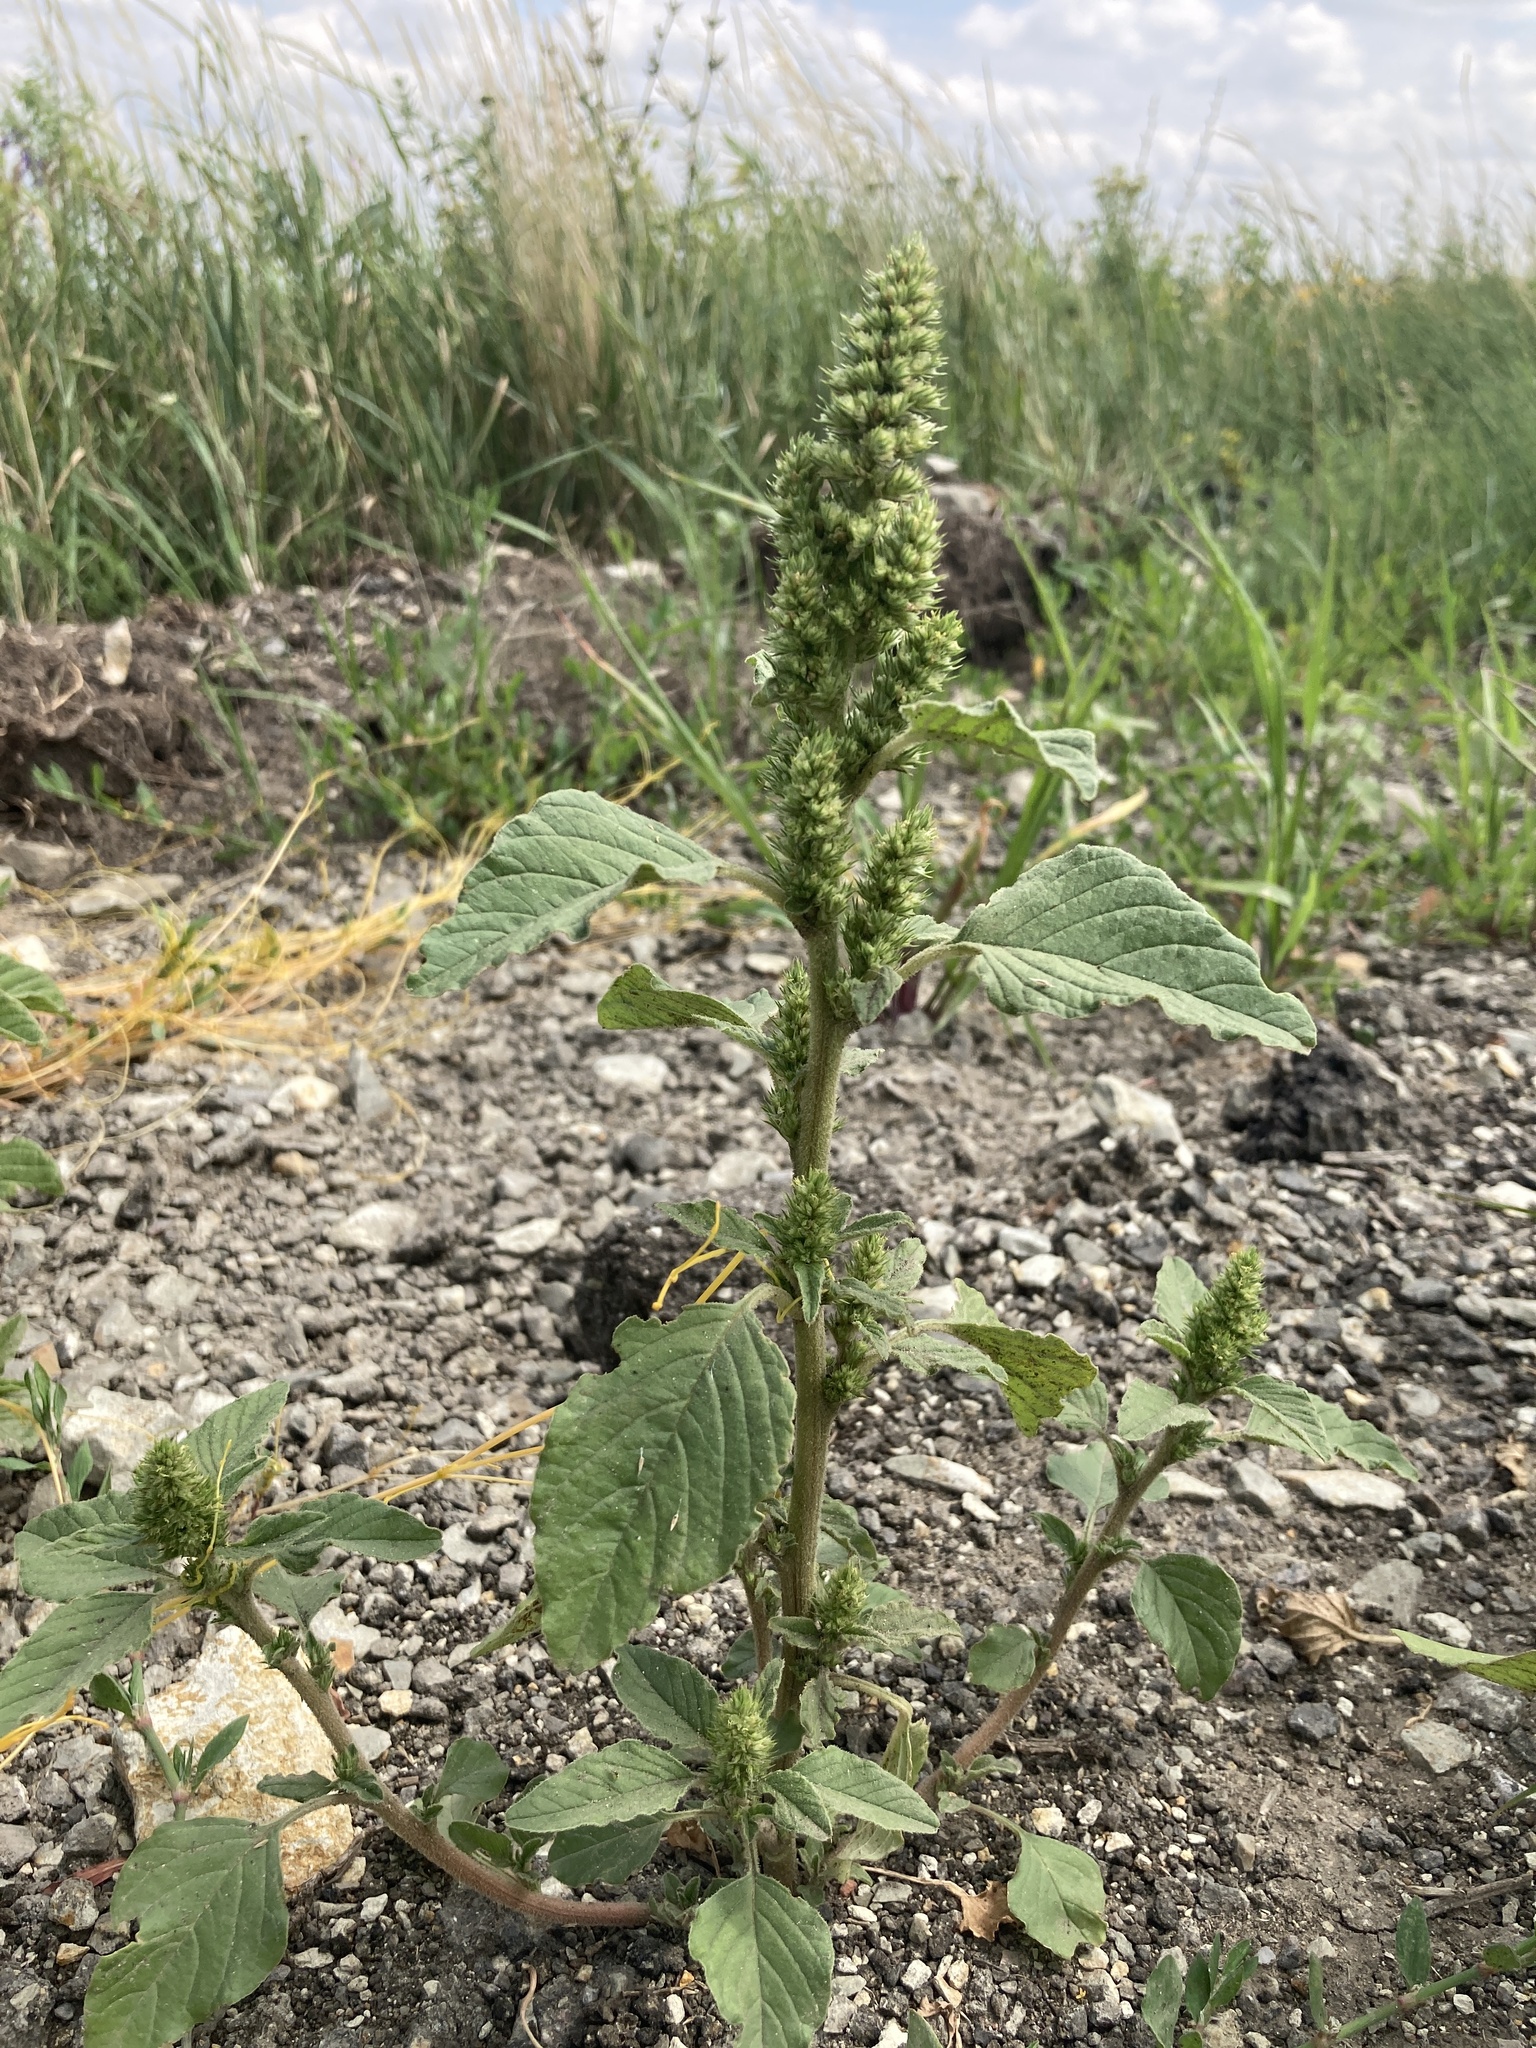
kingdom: Plantae
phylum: Tracheophyta
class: Magnoliopsida
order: Caryophyllales
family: Amaranthaceae
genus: Amaranthus
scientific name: Amaranthus retroflexus
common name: Redroot amaranth
